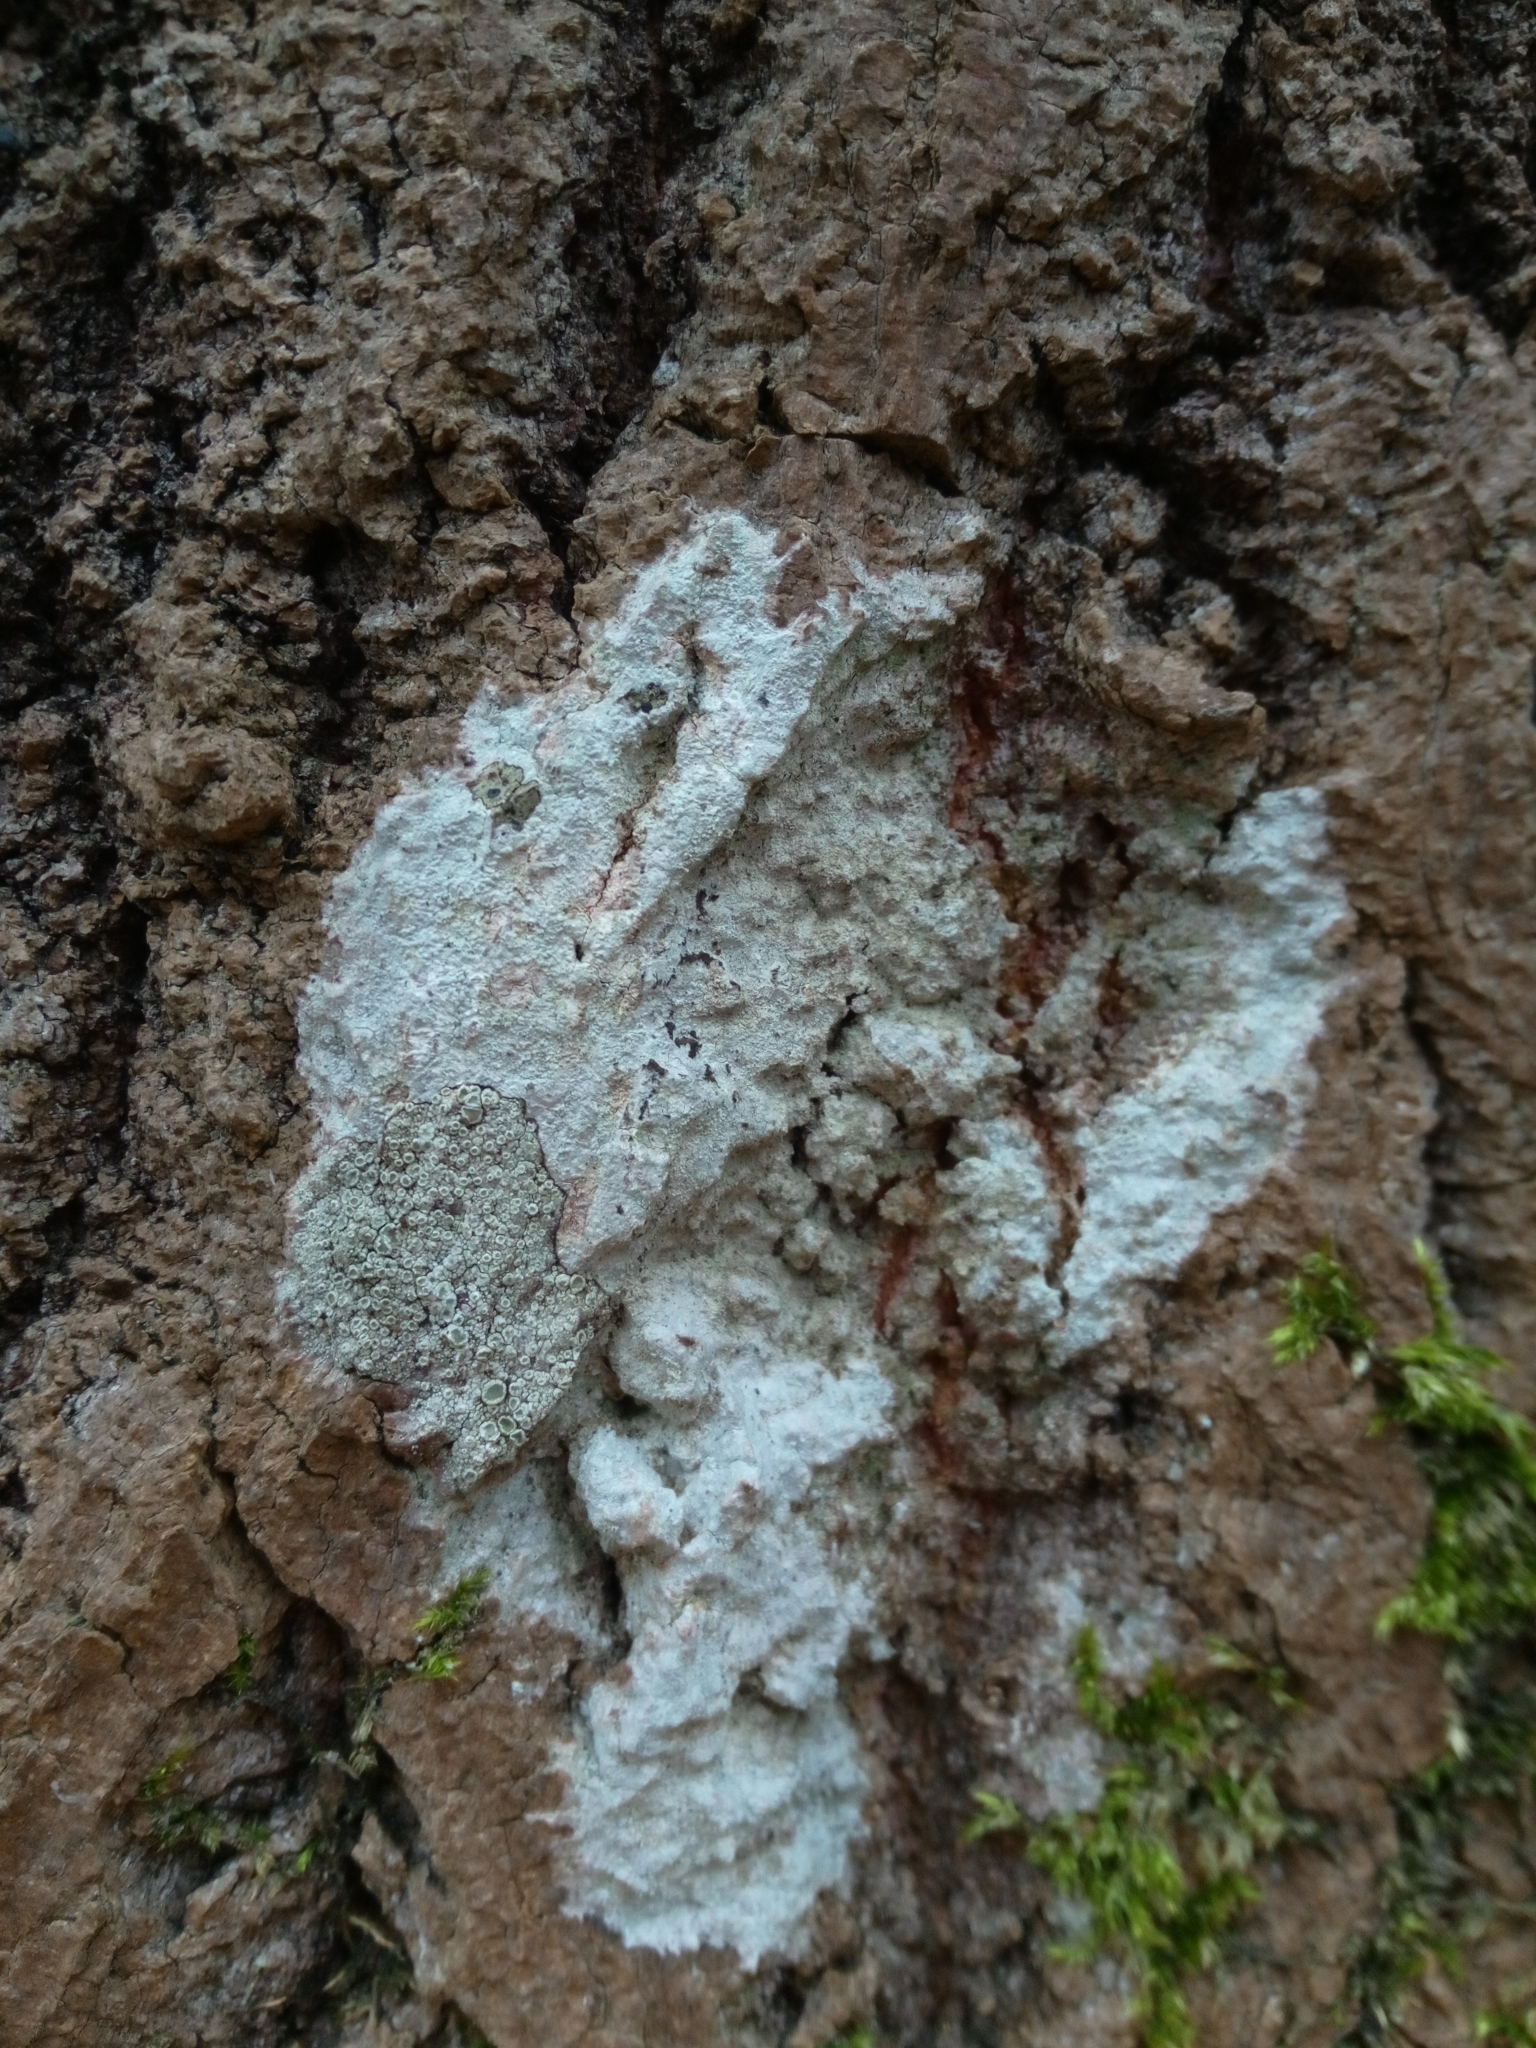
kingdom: Fungi
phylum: Ascomycota
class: Lecanoromycetes
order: Ostropales
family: Phlyctidaceae
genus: Phlyctis
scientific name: Phlyctis argena
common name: Whitewash lichen
